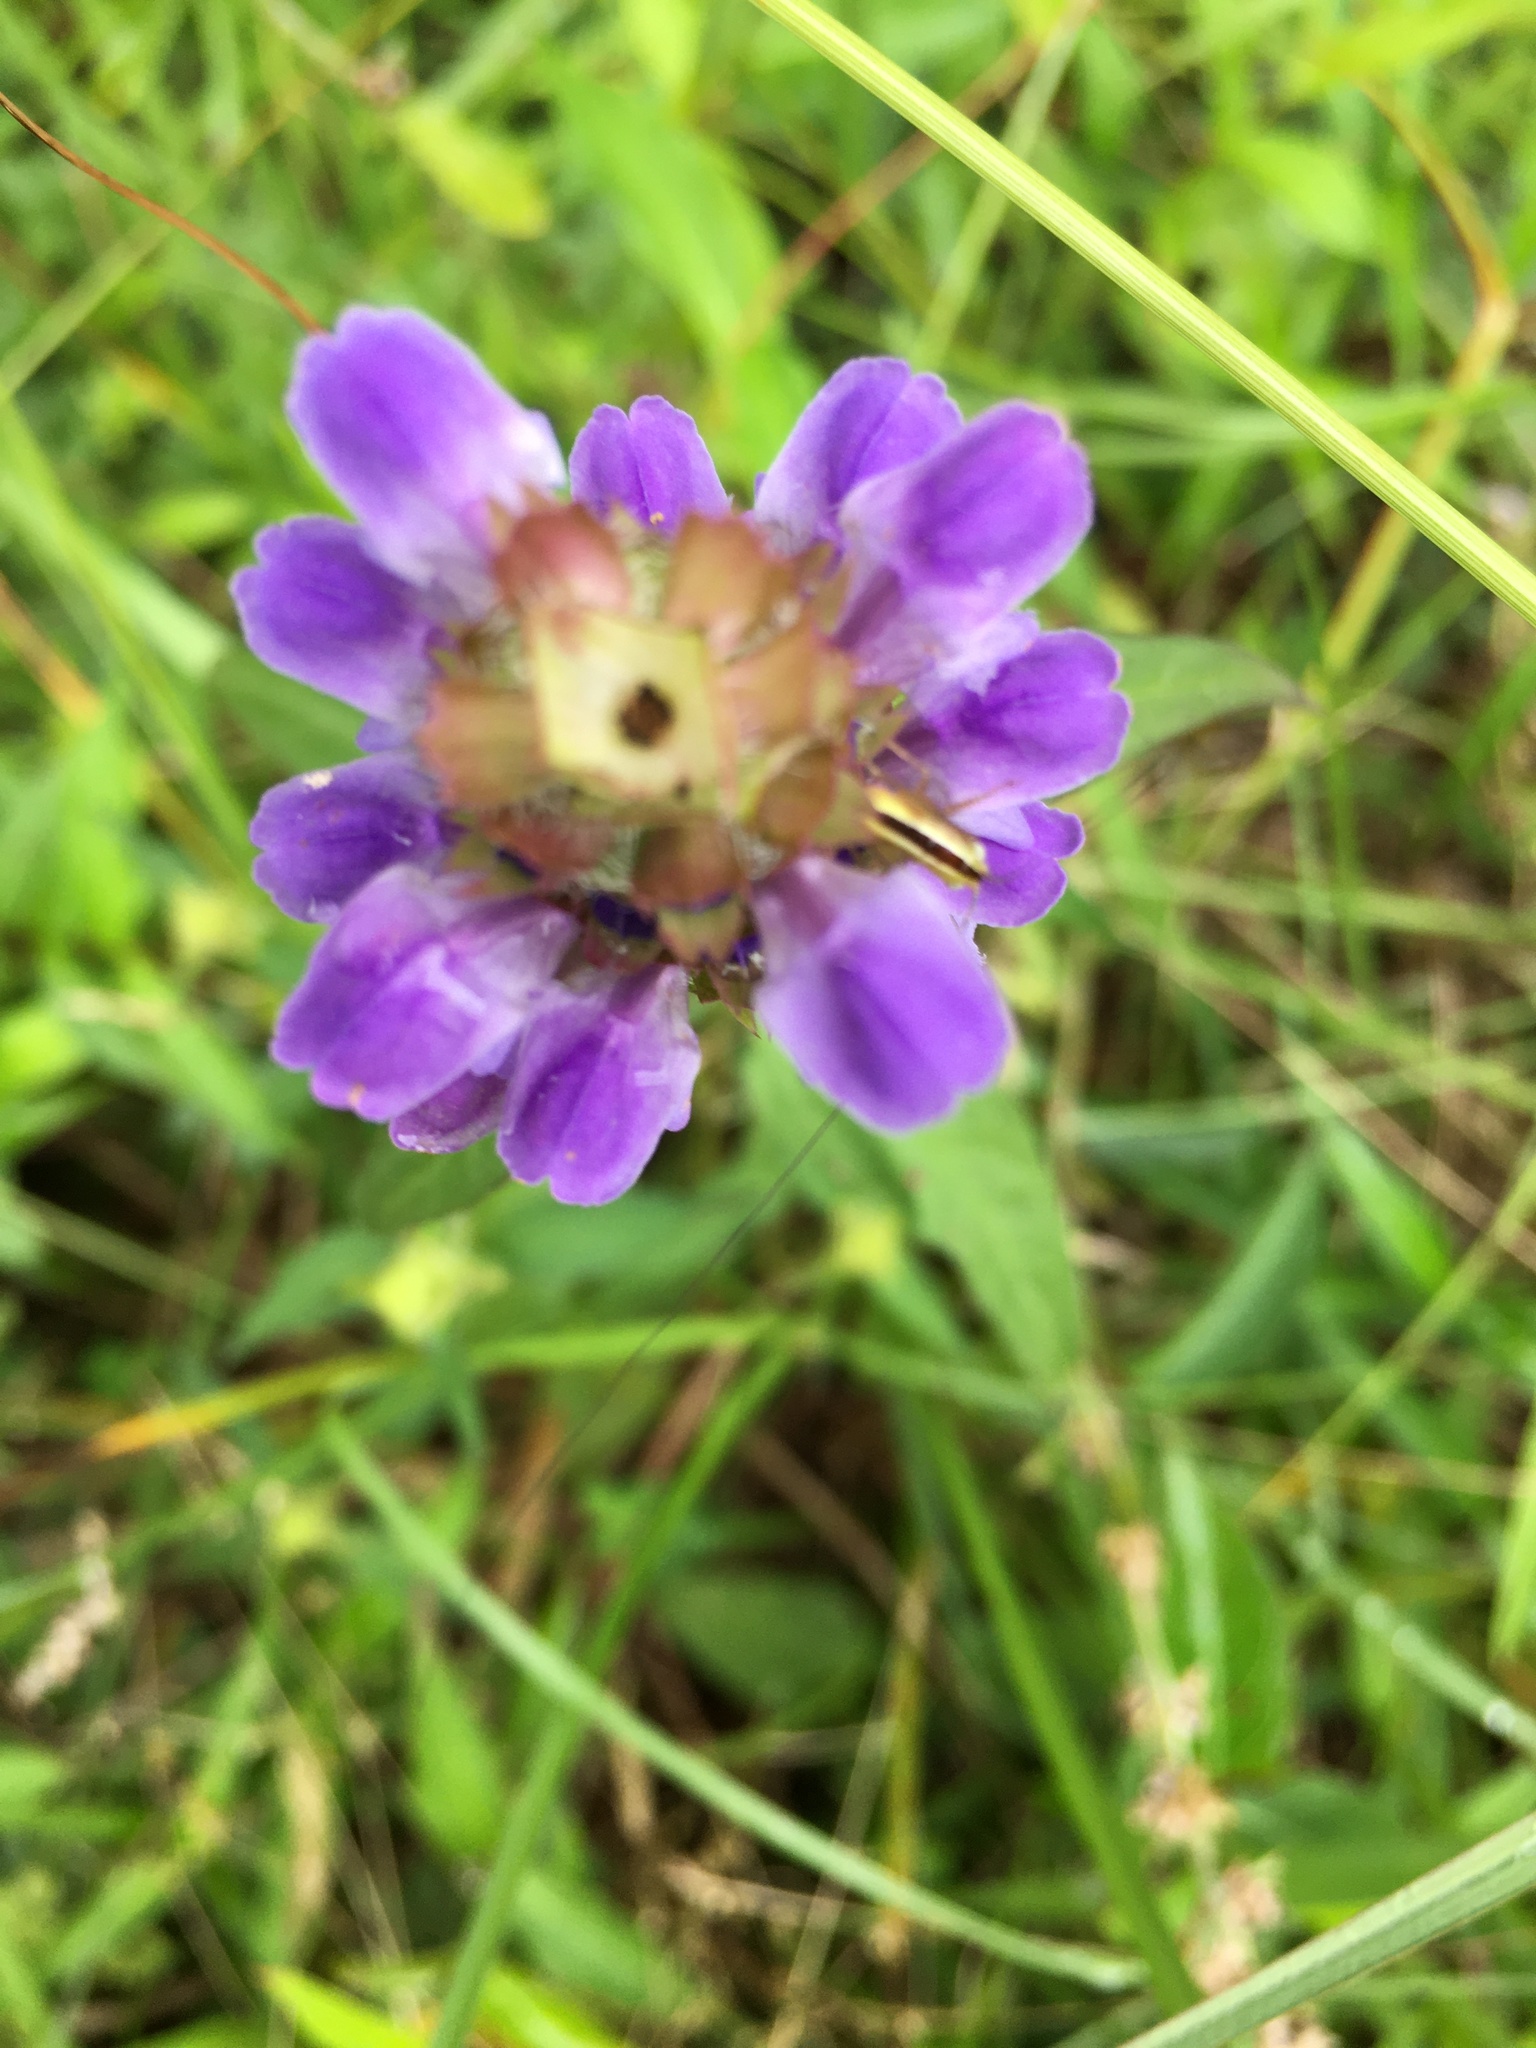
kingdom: Plantae
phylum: Tracheophyta
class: Magnoliopsida
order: Lamiales
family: Lamiaceae
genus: Prunella
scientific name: Prunella vulgaris
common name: Heal-all
